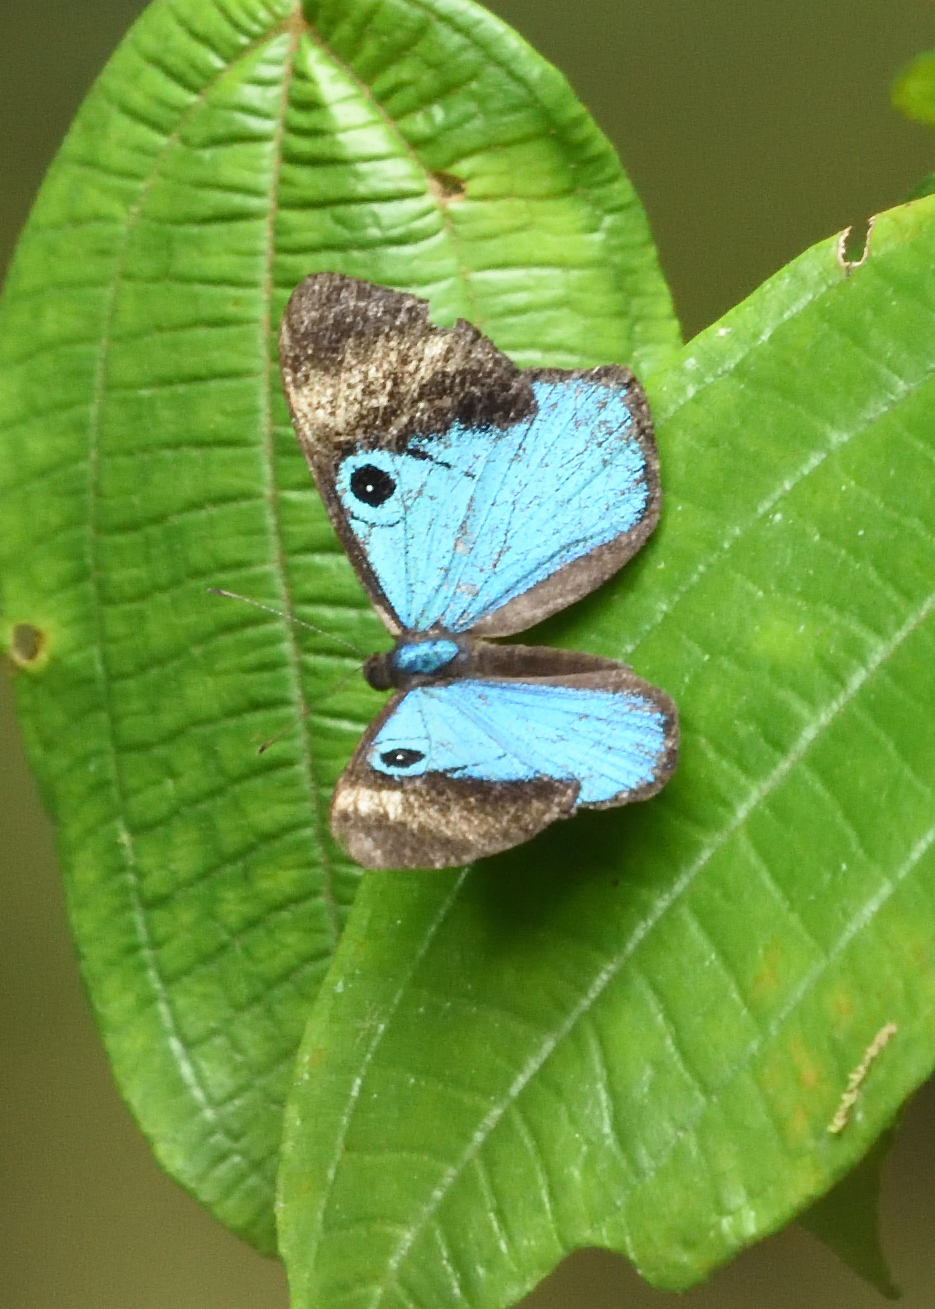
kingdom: Animalia
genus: Mesosemia
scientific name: Mesosemia mevania
